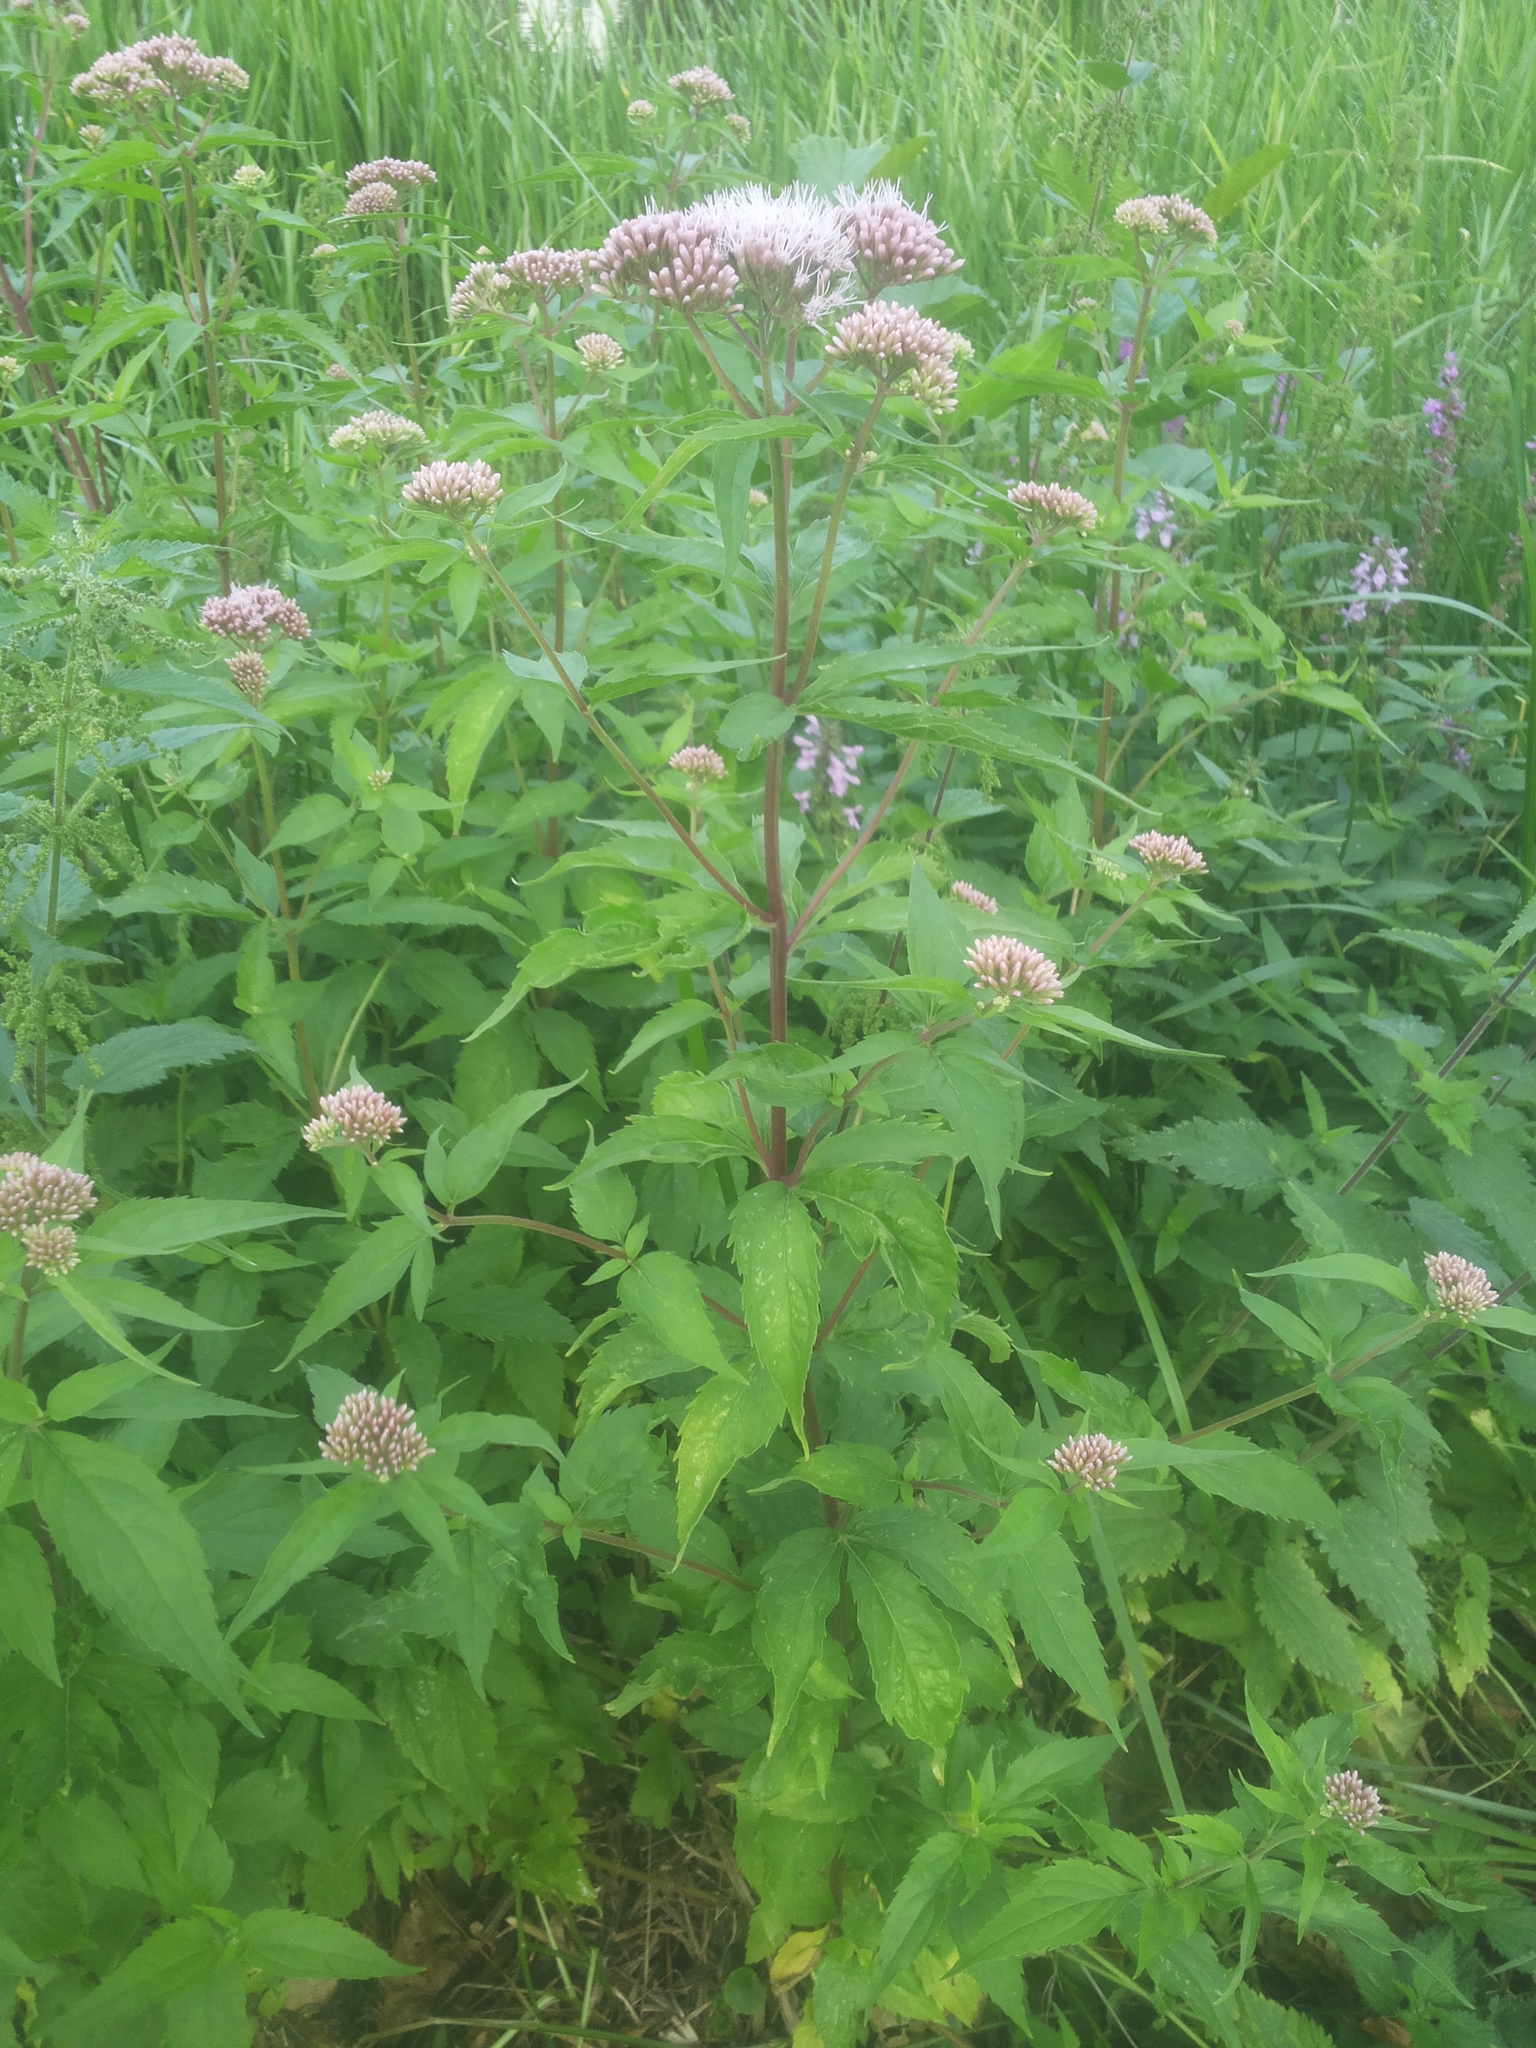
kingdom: Plantae
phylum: Tracheophyta
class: Magnoliopsida
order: Asterales
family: Asteraceae
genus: Eupatorium
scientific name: Eupatorium cannabinum
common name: Hemp-agrimony
